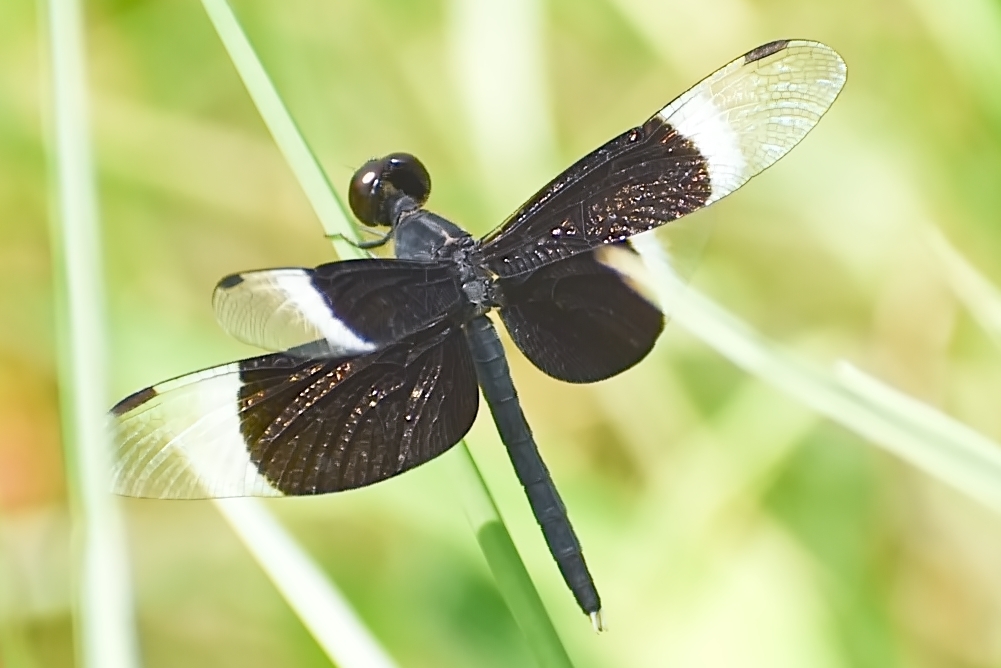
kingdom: Animalia
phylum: Arthropoda
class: Insecta
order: Odonata
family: Libellulidae
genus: Neurothemis
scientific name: Neurothemis tullia
